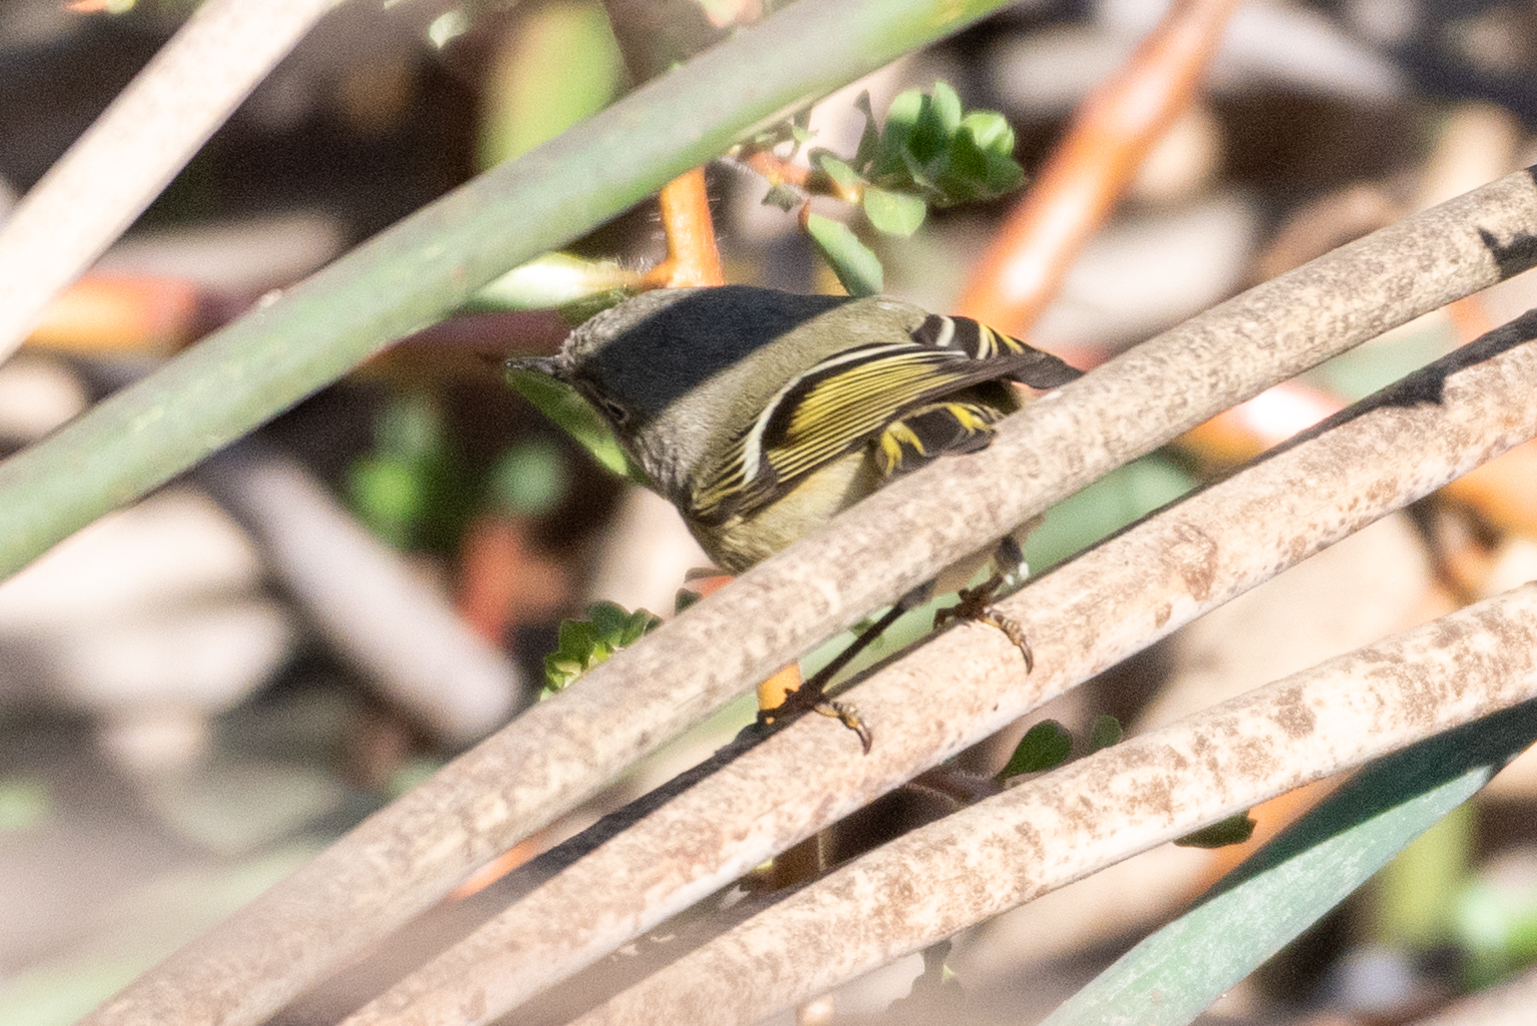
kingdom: Animalia
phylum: Chordata
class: Aves
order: Passeriformes
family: Regulidae
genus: Regulus
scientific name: Regulus calendula
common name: Ruby-crowned kinglet
